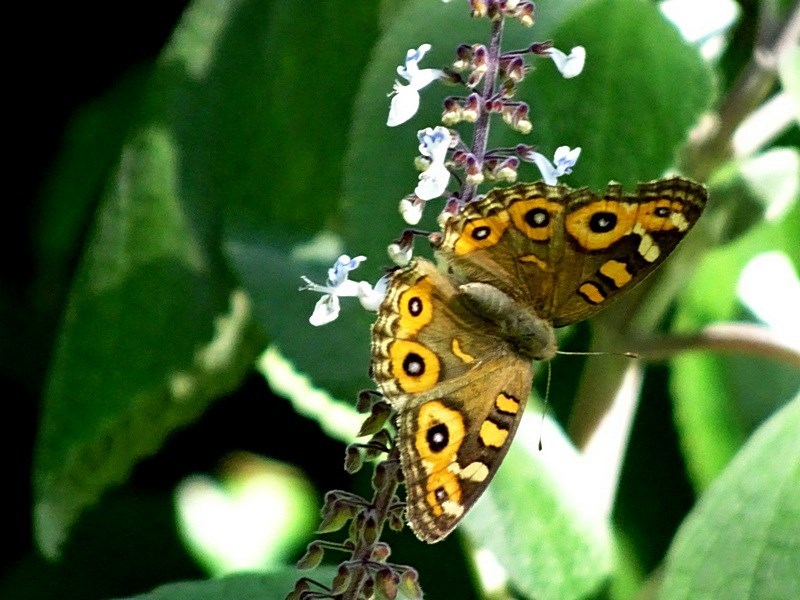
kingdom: Animalia
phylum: Arthropoda
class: Insecta
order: Lepidoptera
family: Nymphalidae
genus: Junonia
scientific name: Junonia villida
